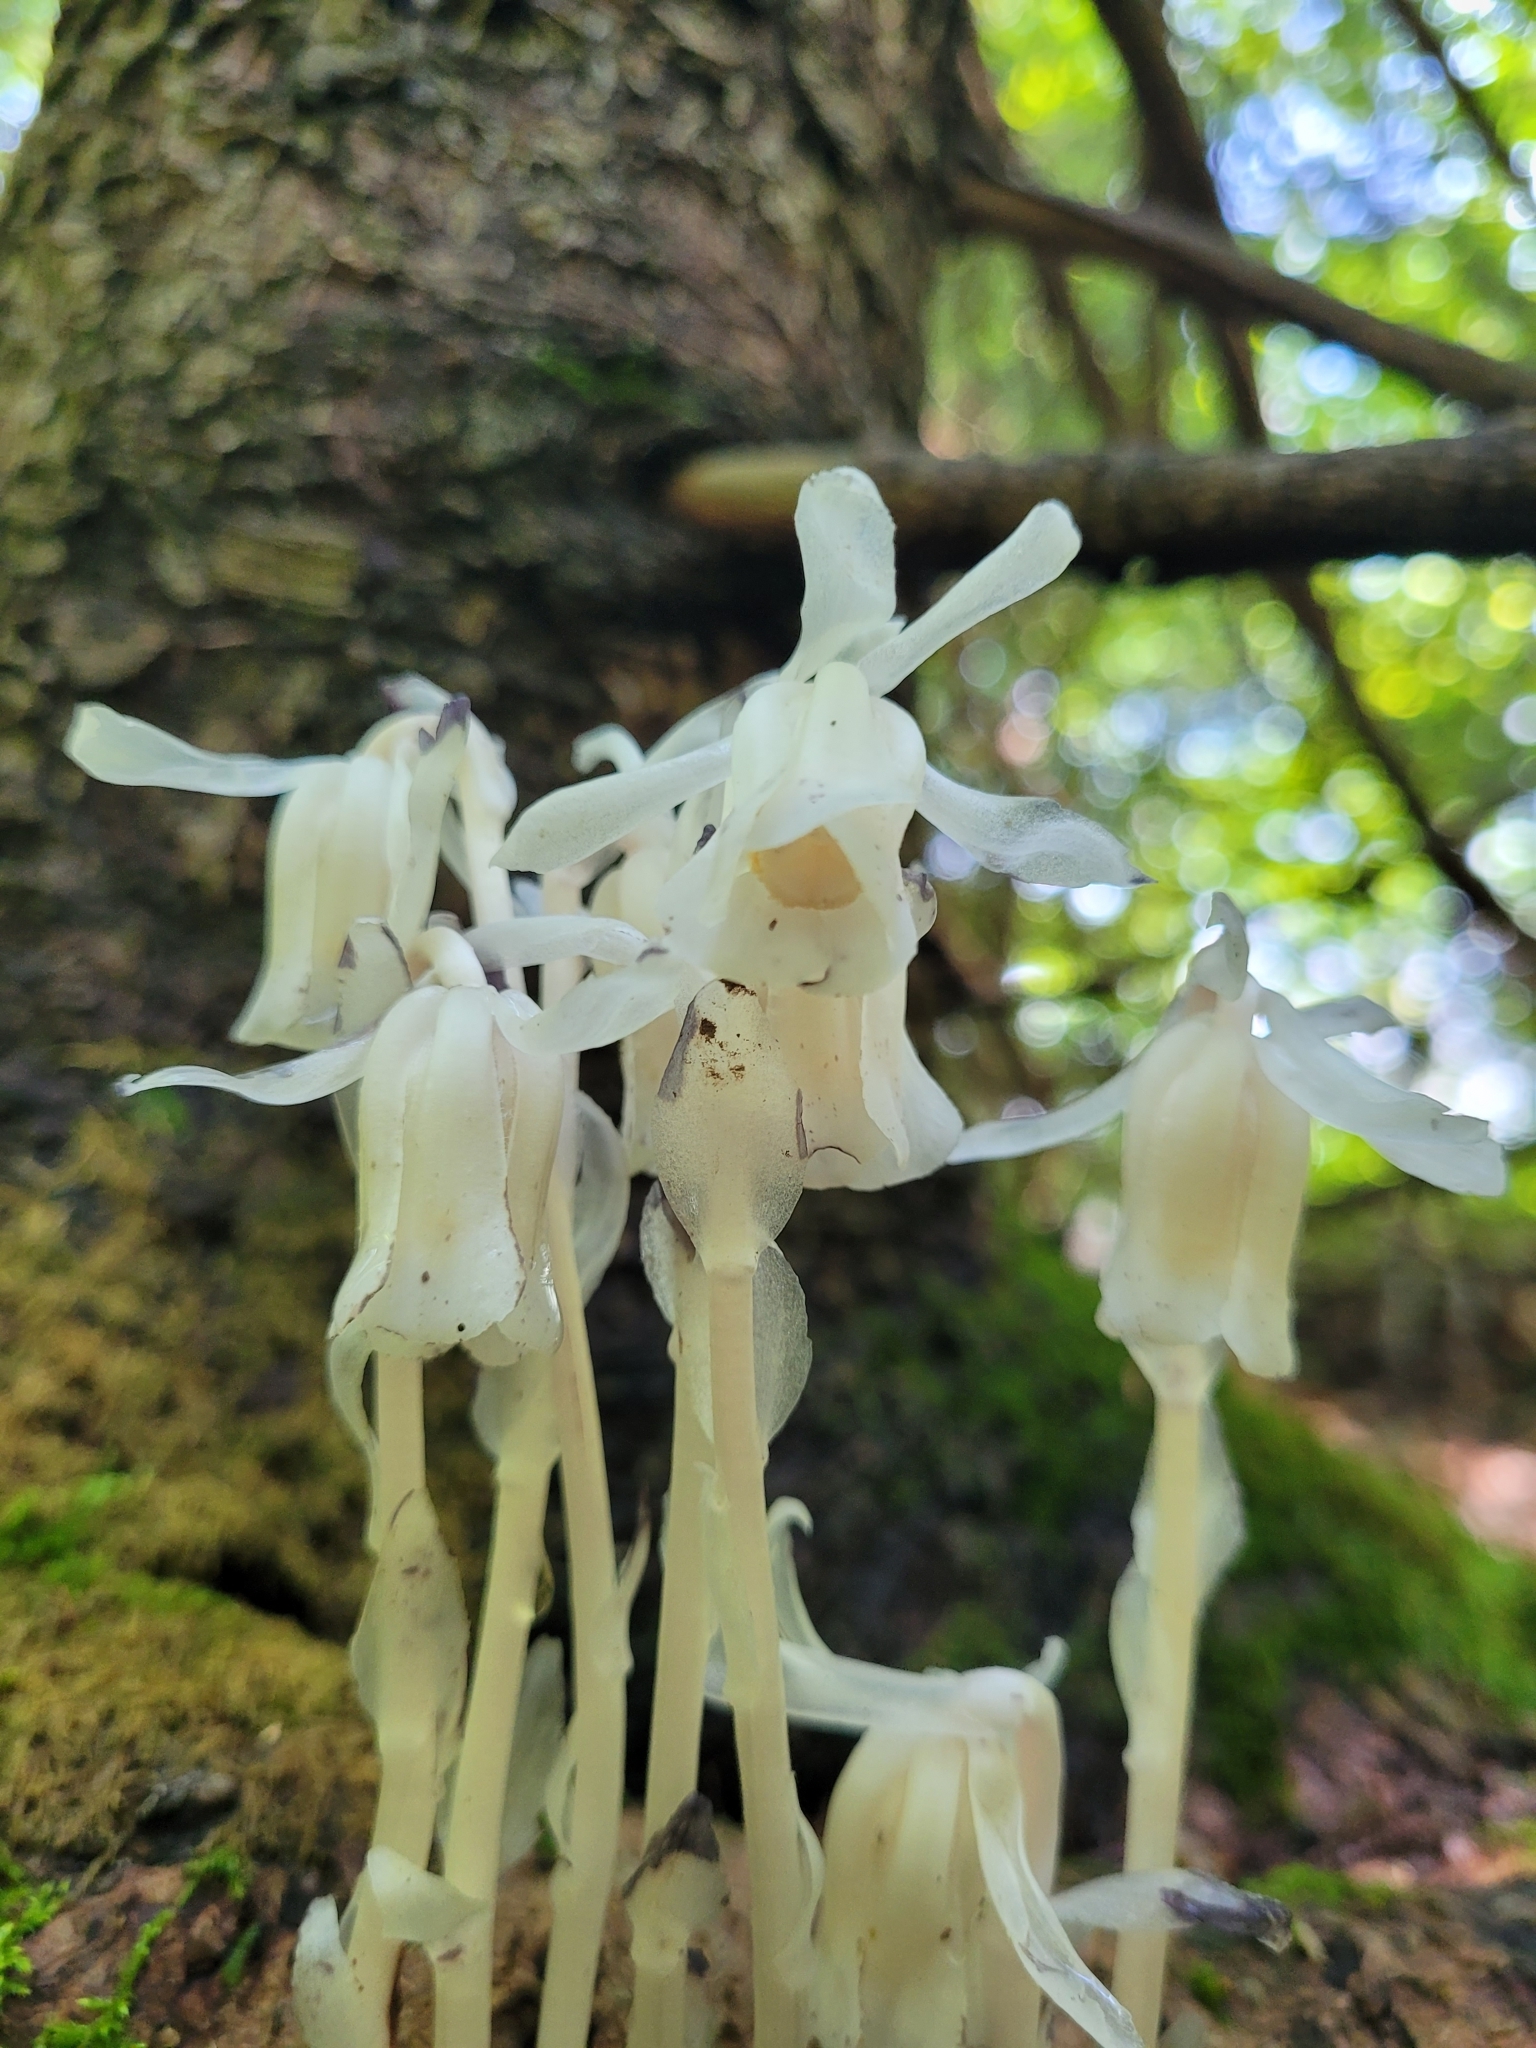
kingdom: Plantae
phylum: Tracheophyta
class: Magnoliopsida
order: Ericales
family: Ericaceae
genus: Monotropa
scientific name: Monotropa uniflora
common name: Convulsion root
